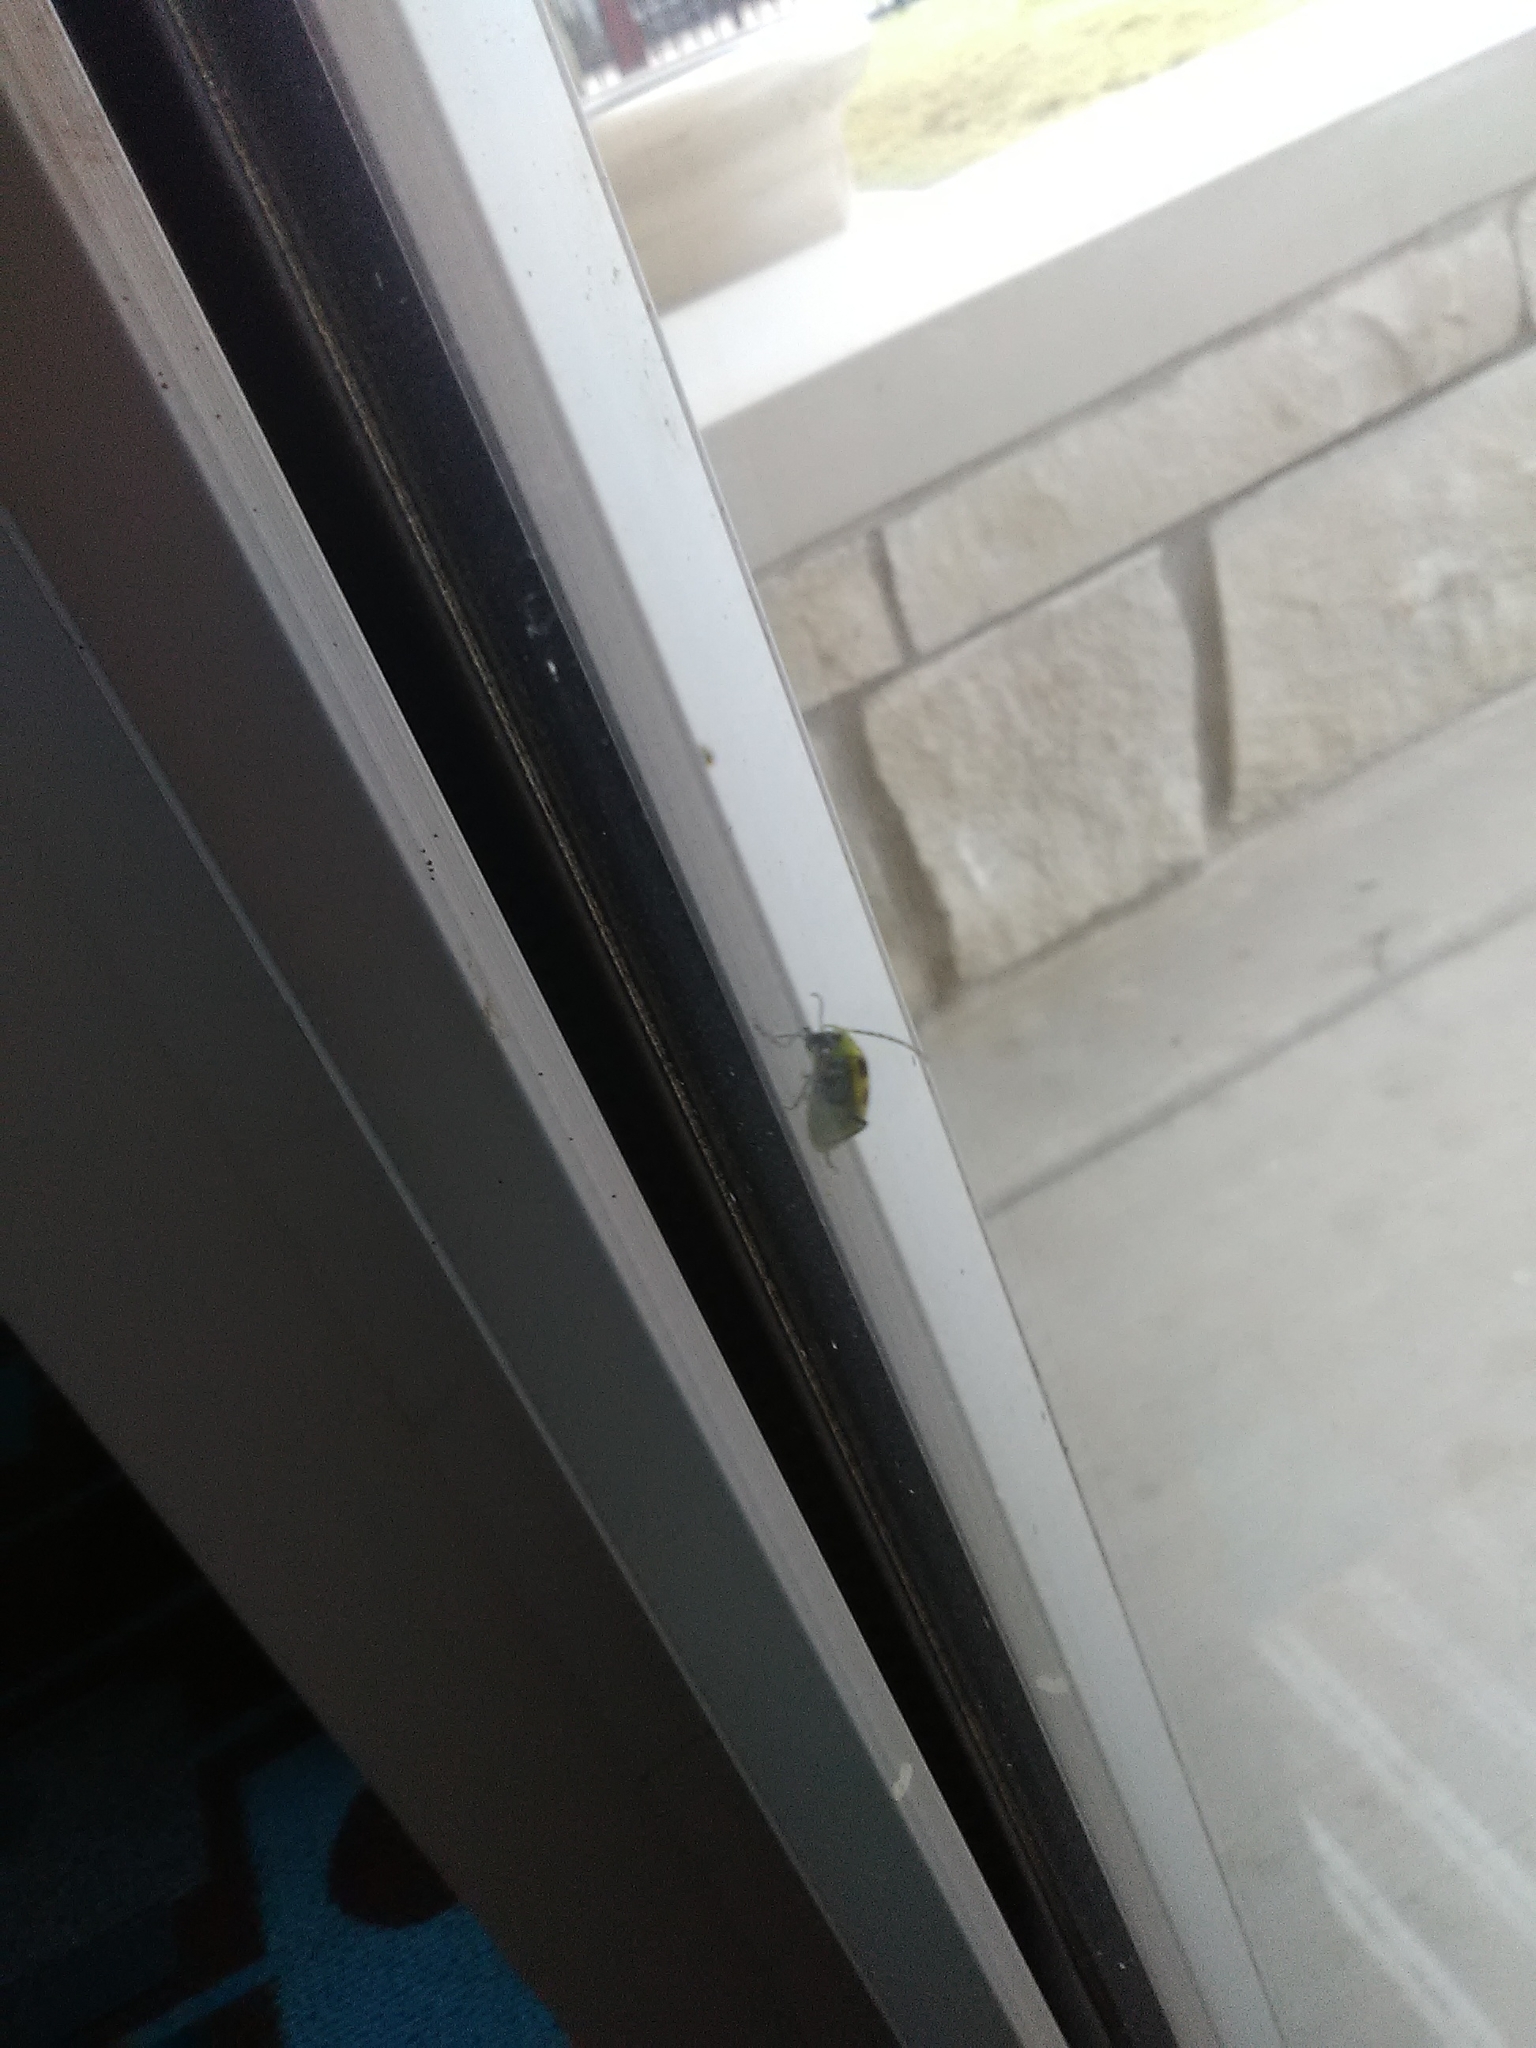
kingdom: Animalia
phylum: Arthropoda
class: Insecta
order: Coleoptera
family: Chrysomelidae
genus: Diabrotica
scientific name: Diabrotica undecimpunctata
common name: Spotted cucumber beetle
